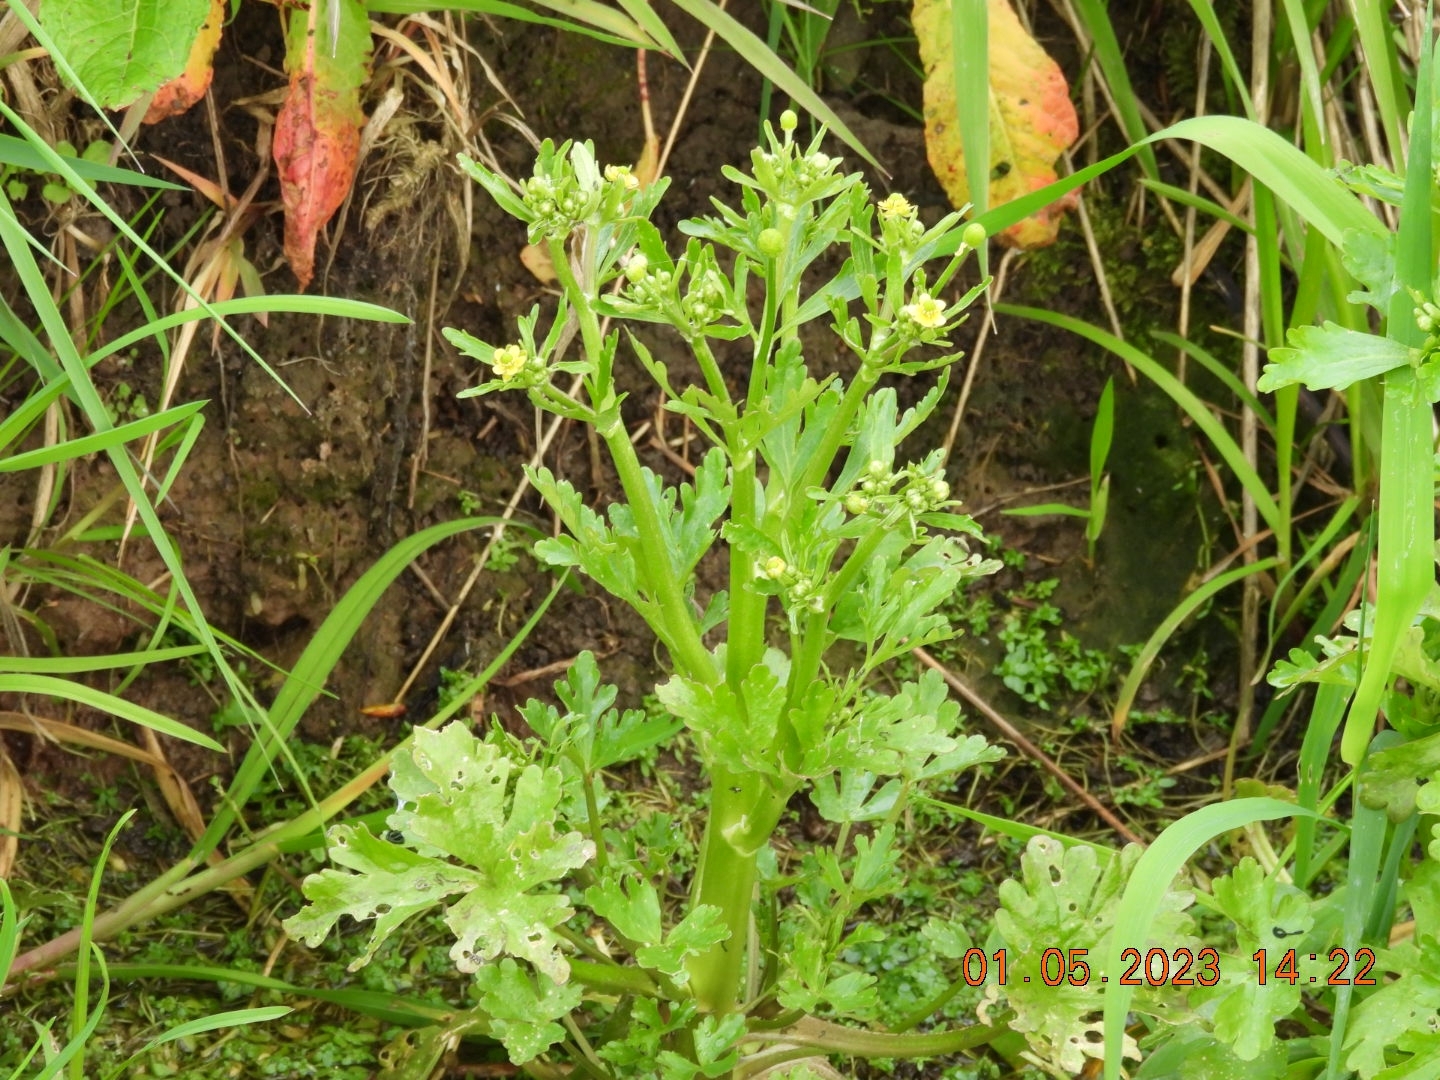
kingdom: Plantae
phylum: Tracheophyta
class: Magnoliopsida
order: Ranunculales
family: Ranunculaceae
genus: Ranunculus
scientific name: Ranunculus sceleratus
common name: Celery-leaved buttercup
